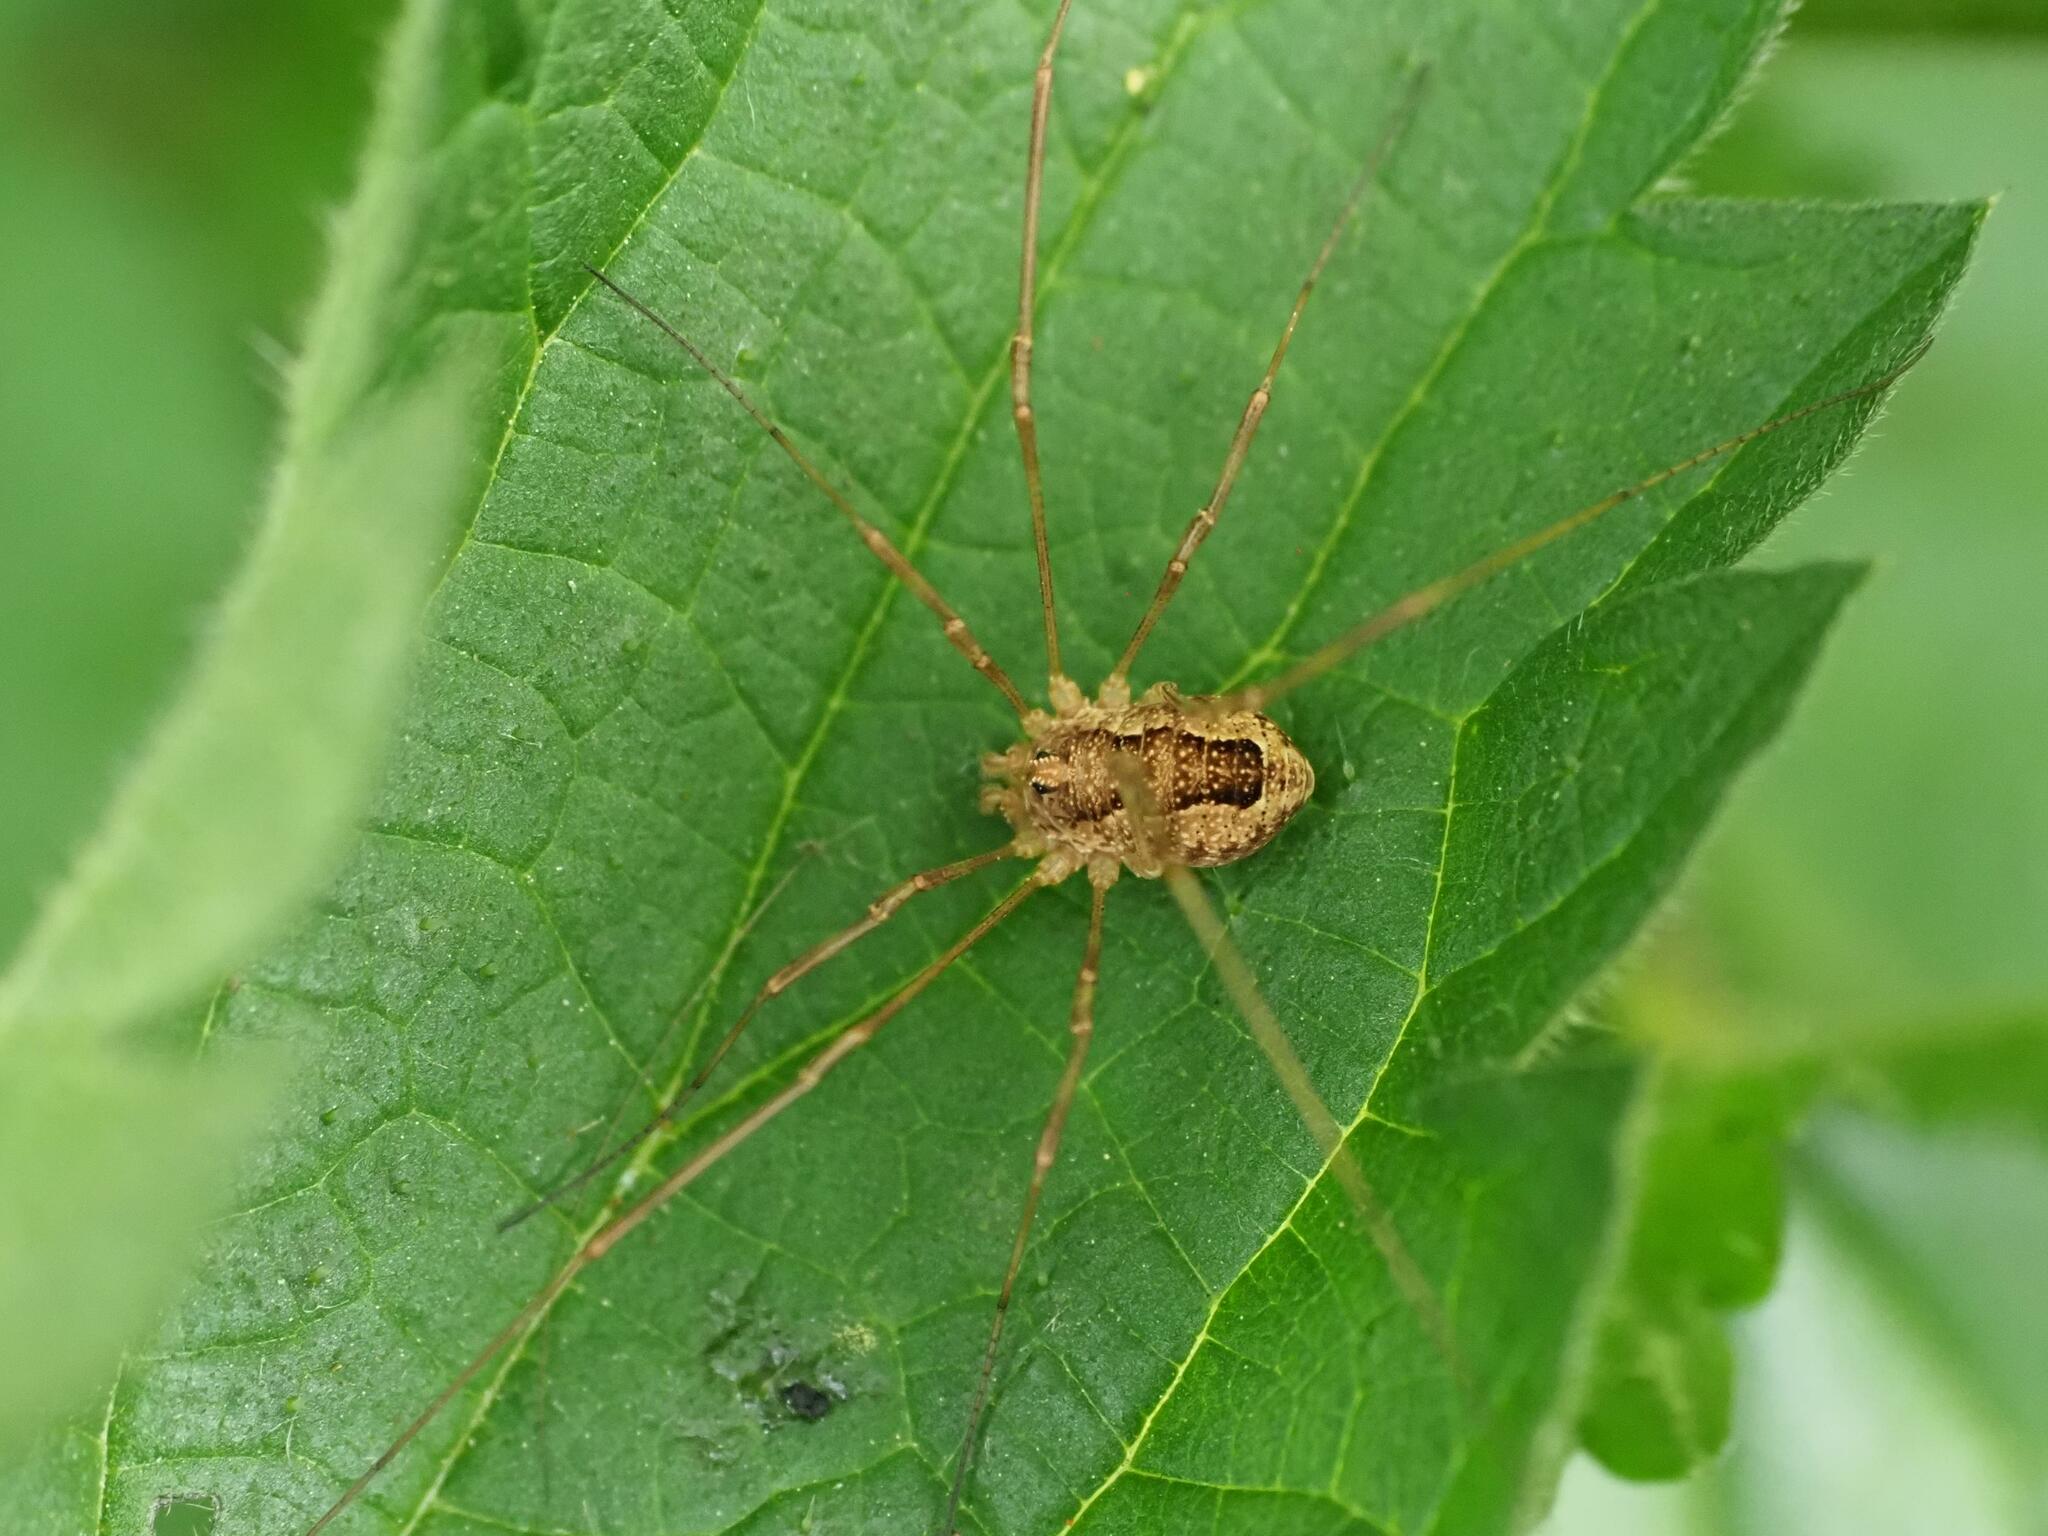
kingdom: Animalia
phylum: Arthropoda
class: Arachnida
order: Opiliones
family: Phalangiidae
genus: Rilaena
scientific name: Rilaena triangularis
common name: Spring harvestman
